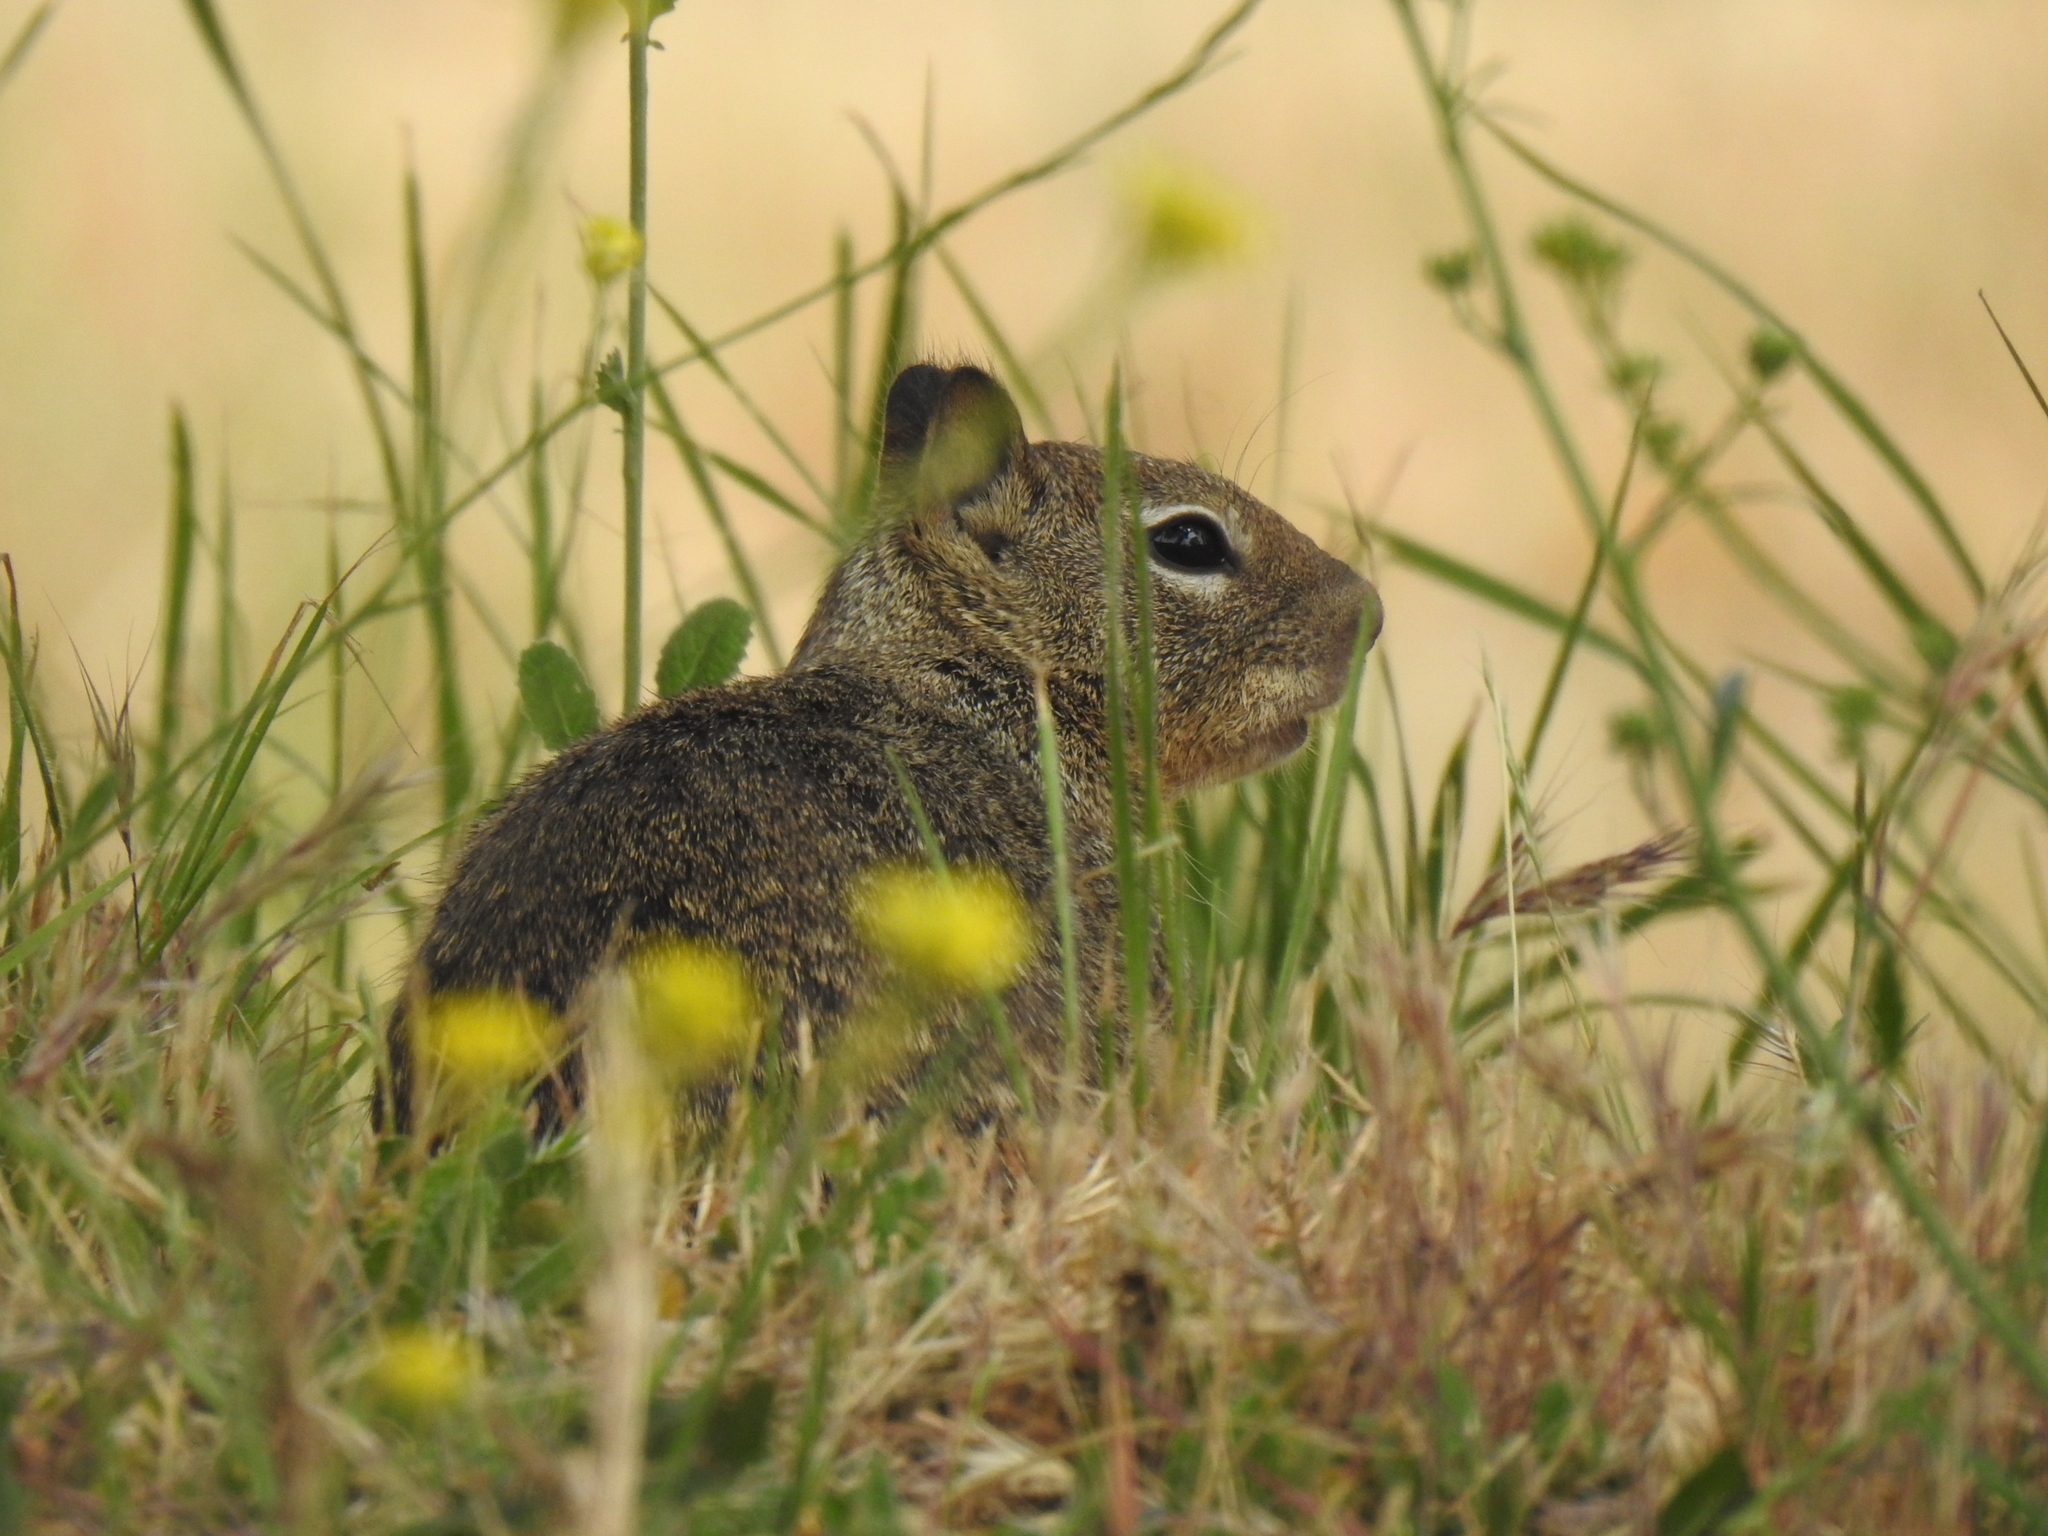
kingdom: Animalia
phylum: Chordata
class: Mammalia
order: Rodentia
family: Sciuridae
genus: Otospermophilus
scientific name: Otospermophilus beecheyi
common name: California ground squirrel
